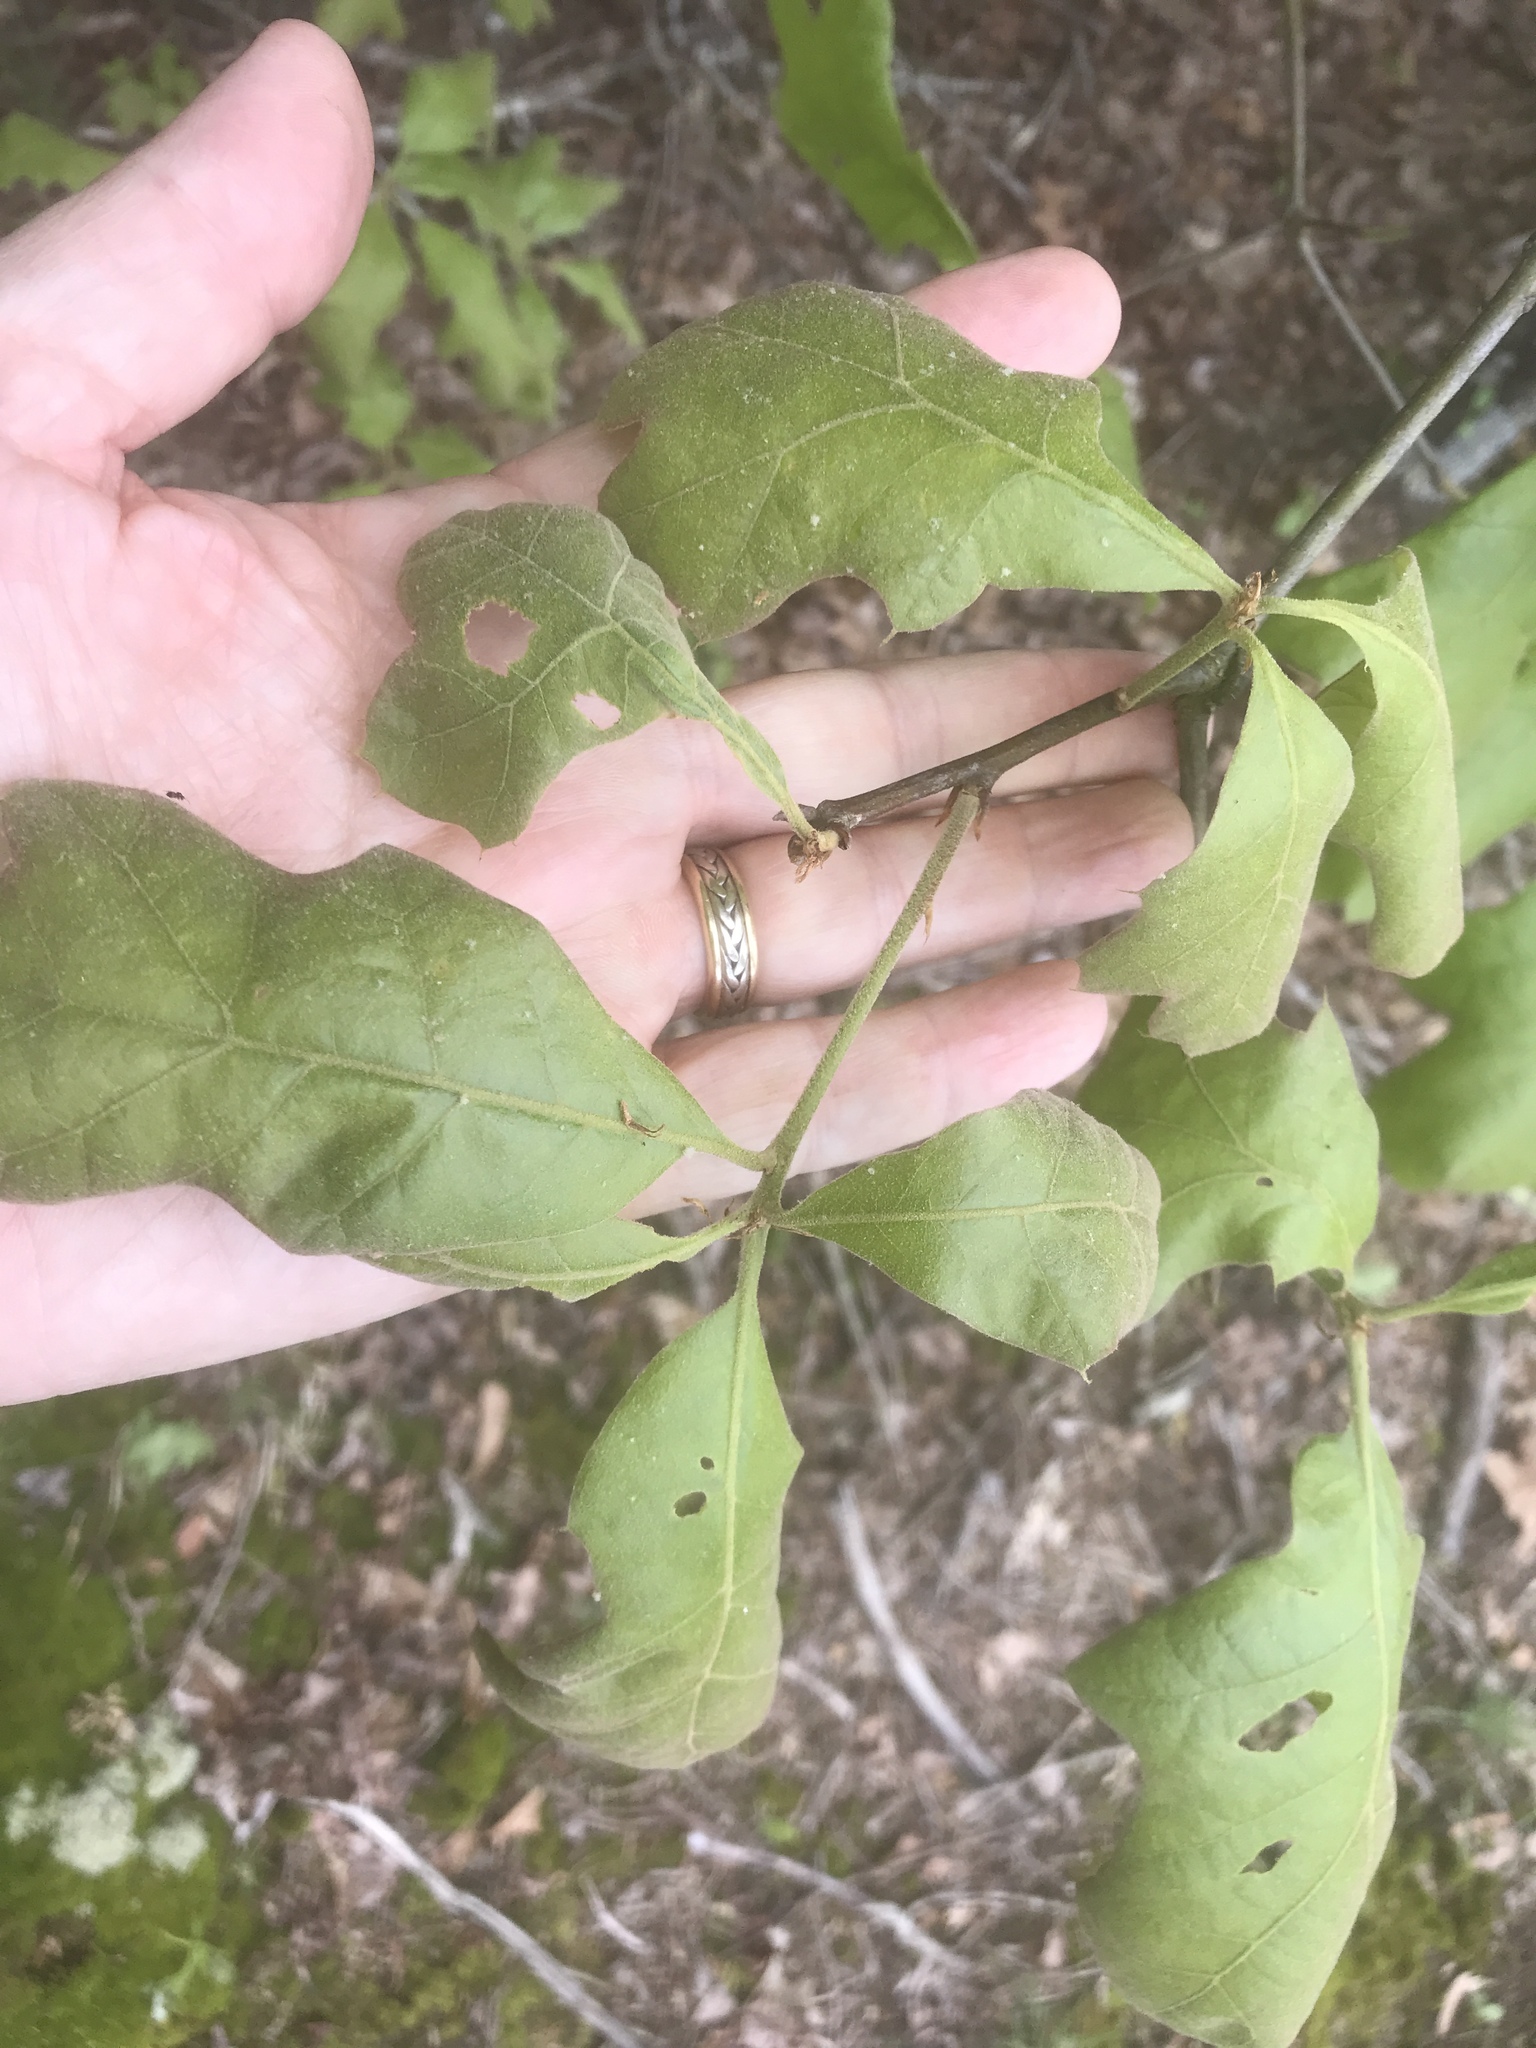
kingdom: Plantae
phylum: Tracheophyta
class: Magnoliopsida
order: Fagales
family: Fagaceae
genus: Quercus
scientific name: Quercus velutina
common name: Black oak
